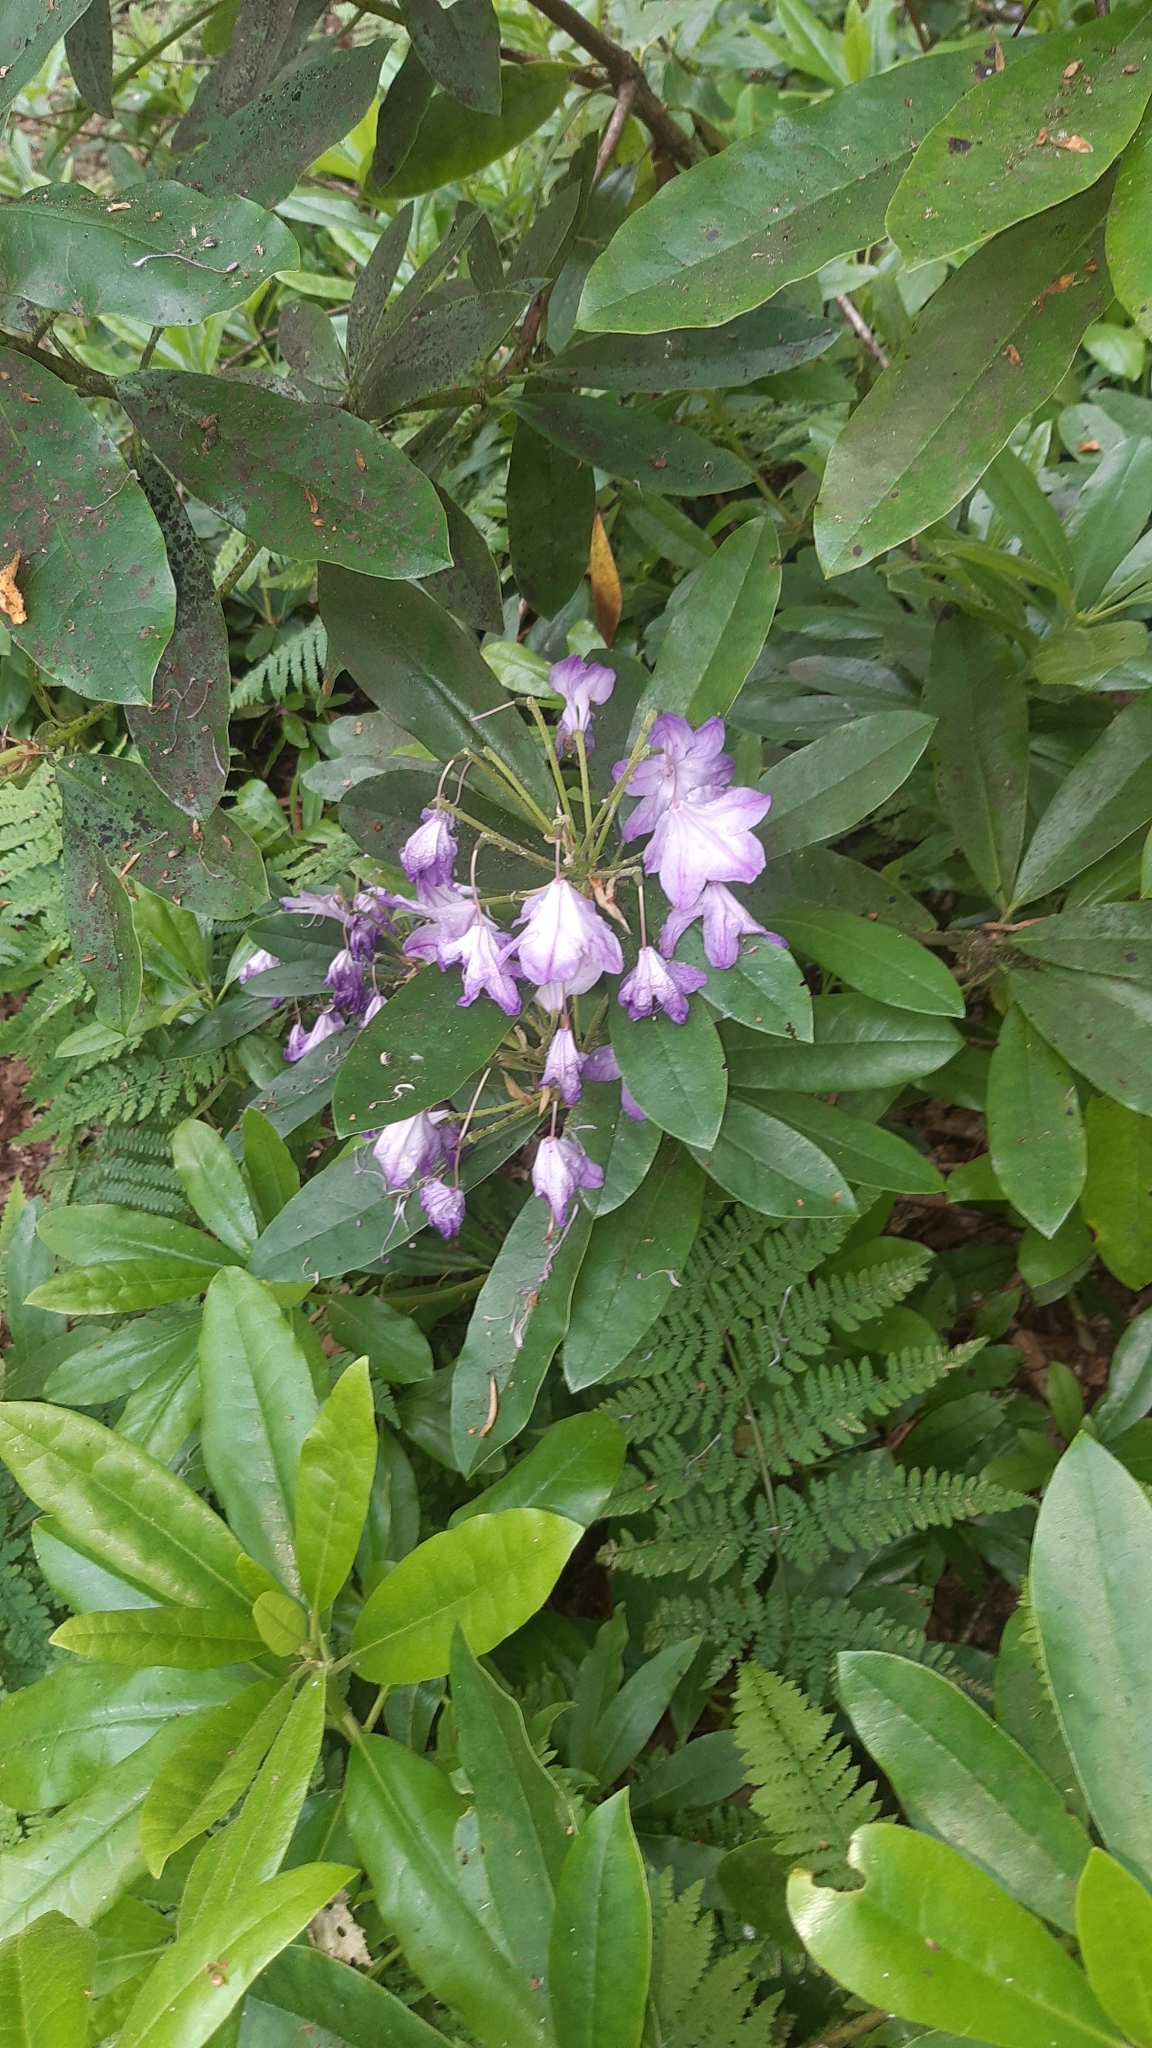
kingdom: Plantae
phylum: Tracheophyta
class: Magnoliopsida
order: Ericales
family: Ericaceae
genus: Rhododendron
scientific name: Rhododendron ponticum
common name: Rhododendron
